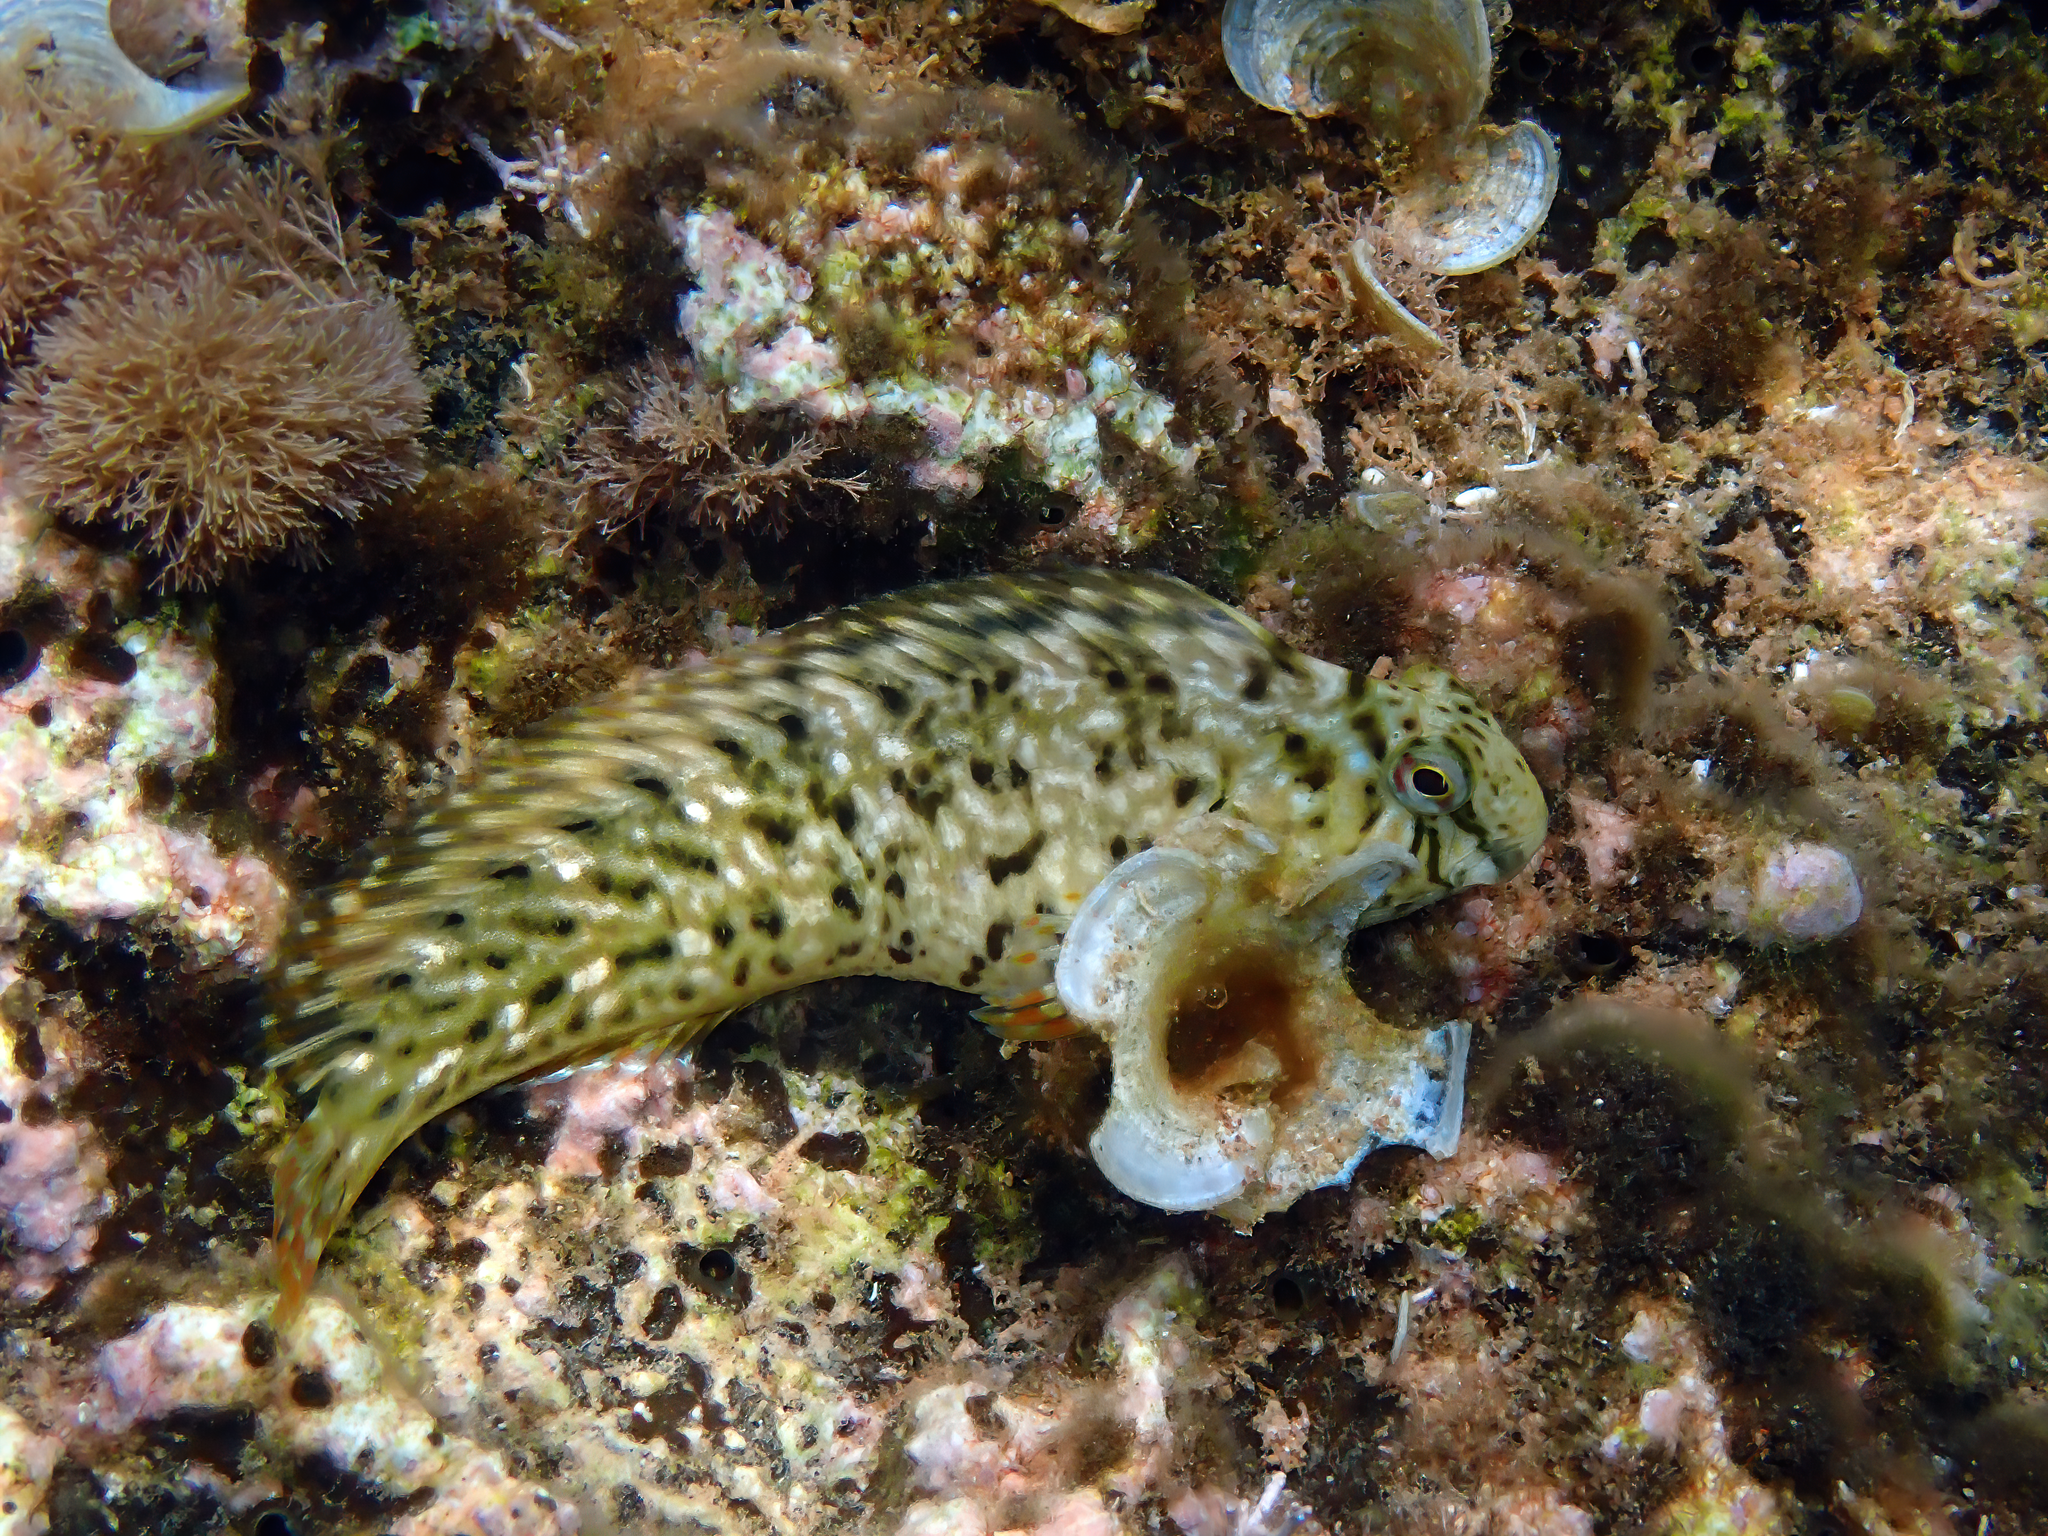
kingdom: Animalia
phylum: Chordata
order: Perciformes
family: Blenniidae
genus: Parablennius
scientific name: Parablennius sanguinolentus
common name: Black sea blenny
